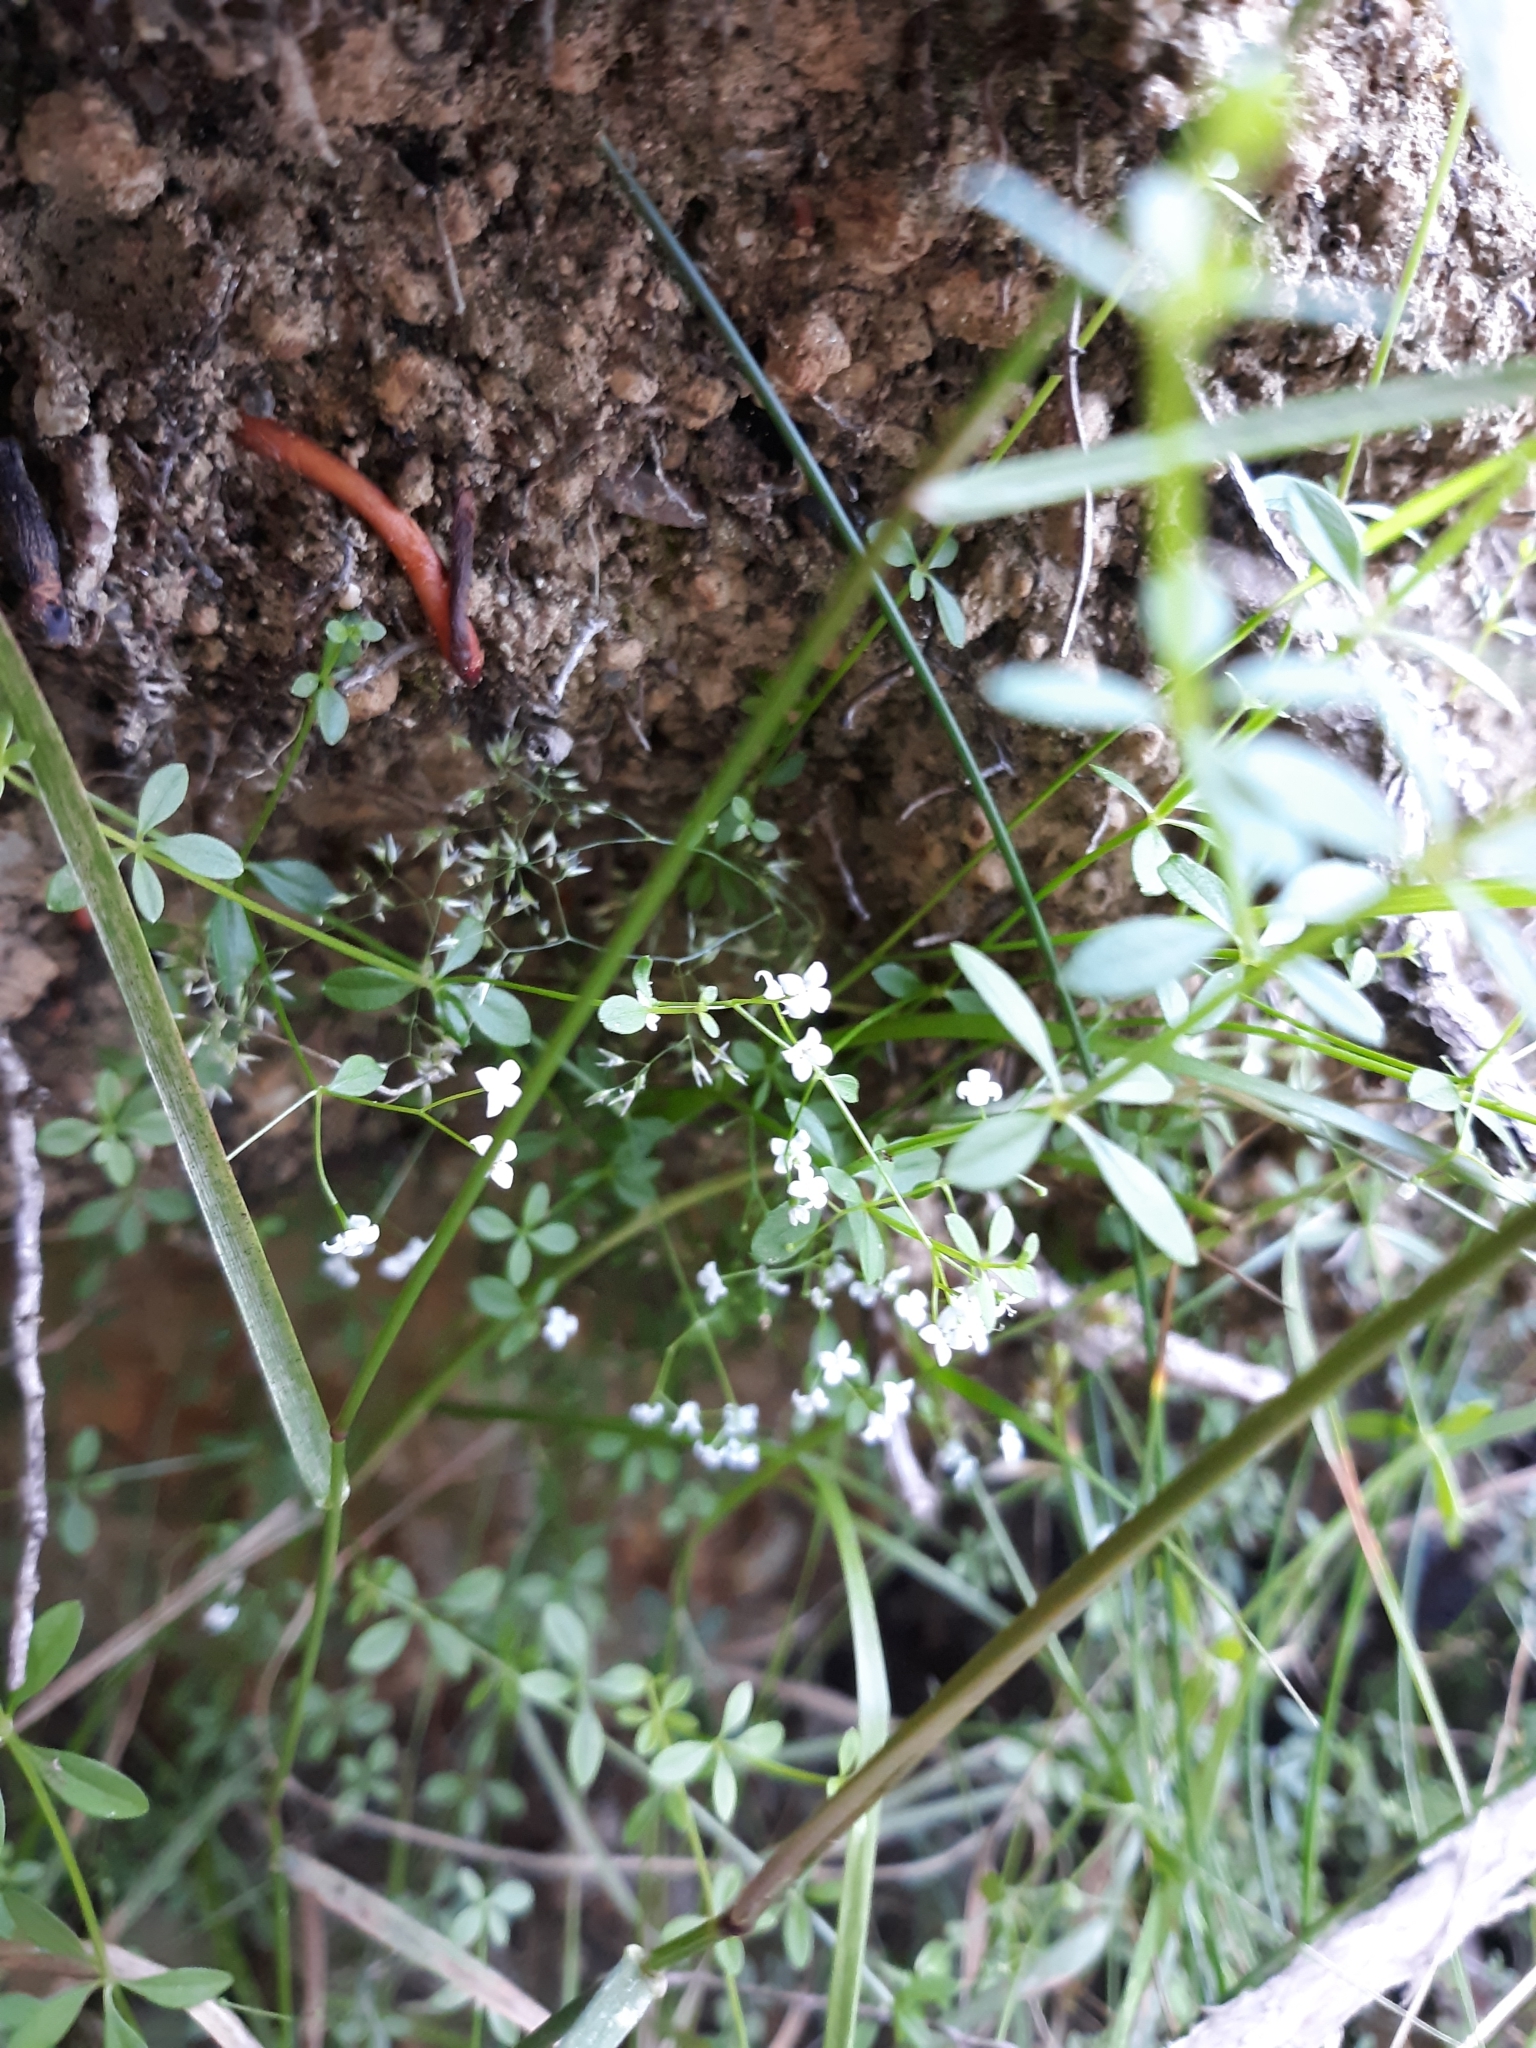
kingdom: Plantae
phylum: Tracheophyta
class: Magnoliopsida
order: Gentianales
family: Rubiaceae
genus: Galium
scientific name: Galium palustre
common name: Common marsh-bedstraw
